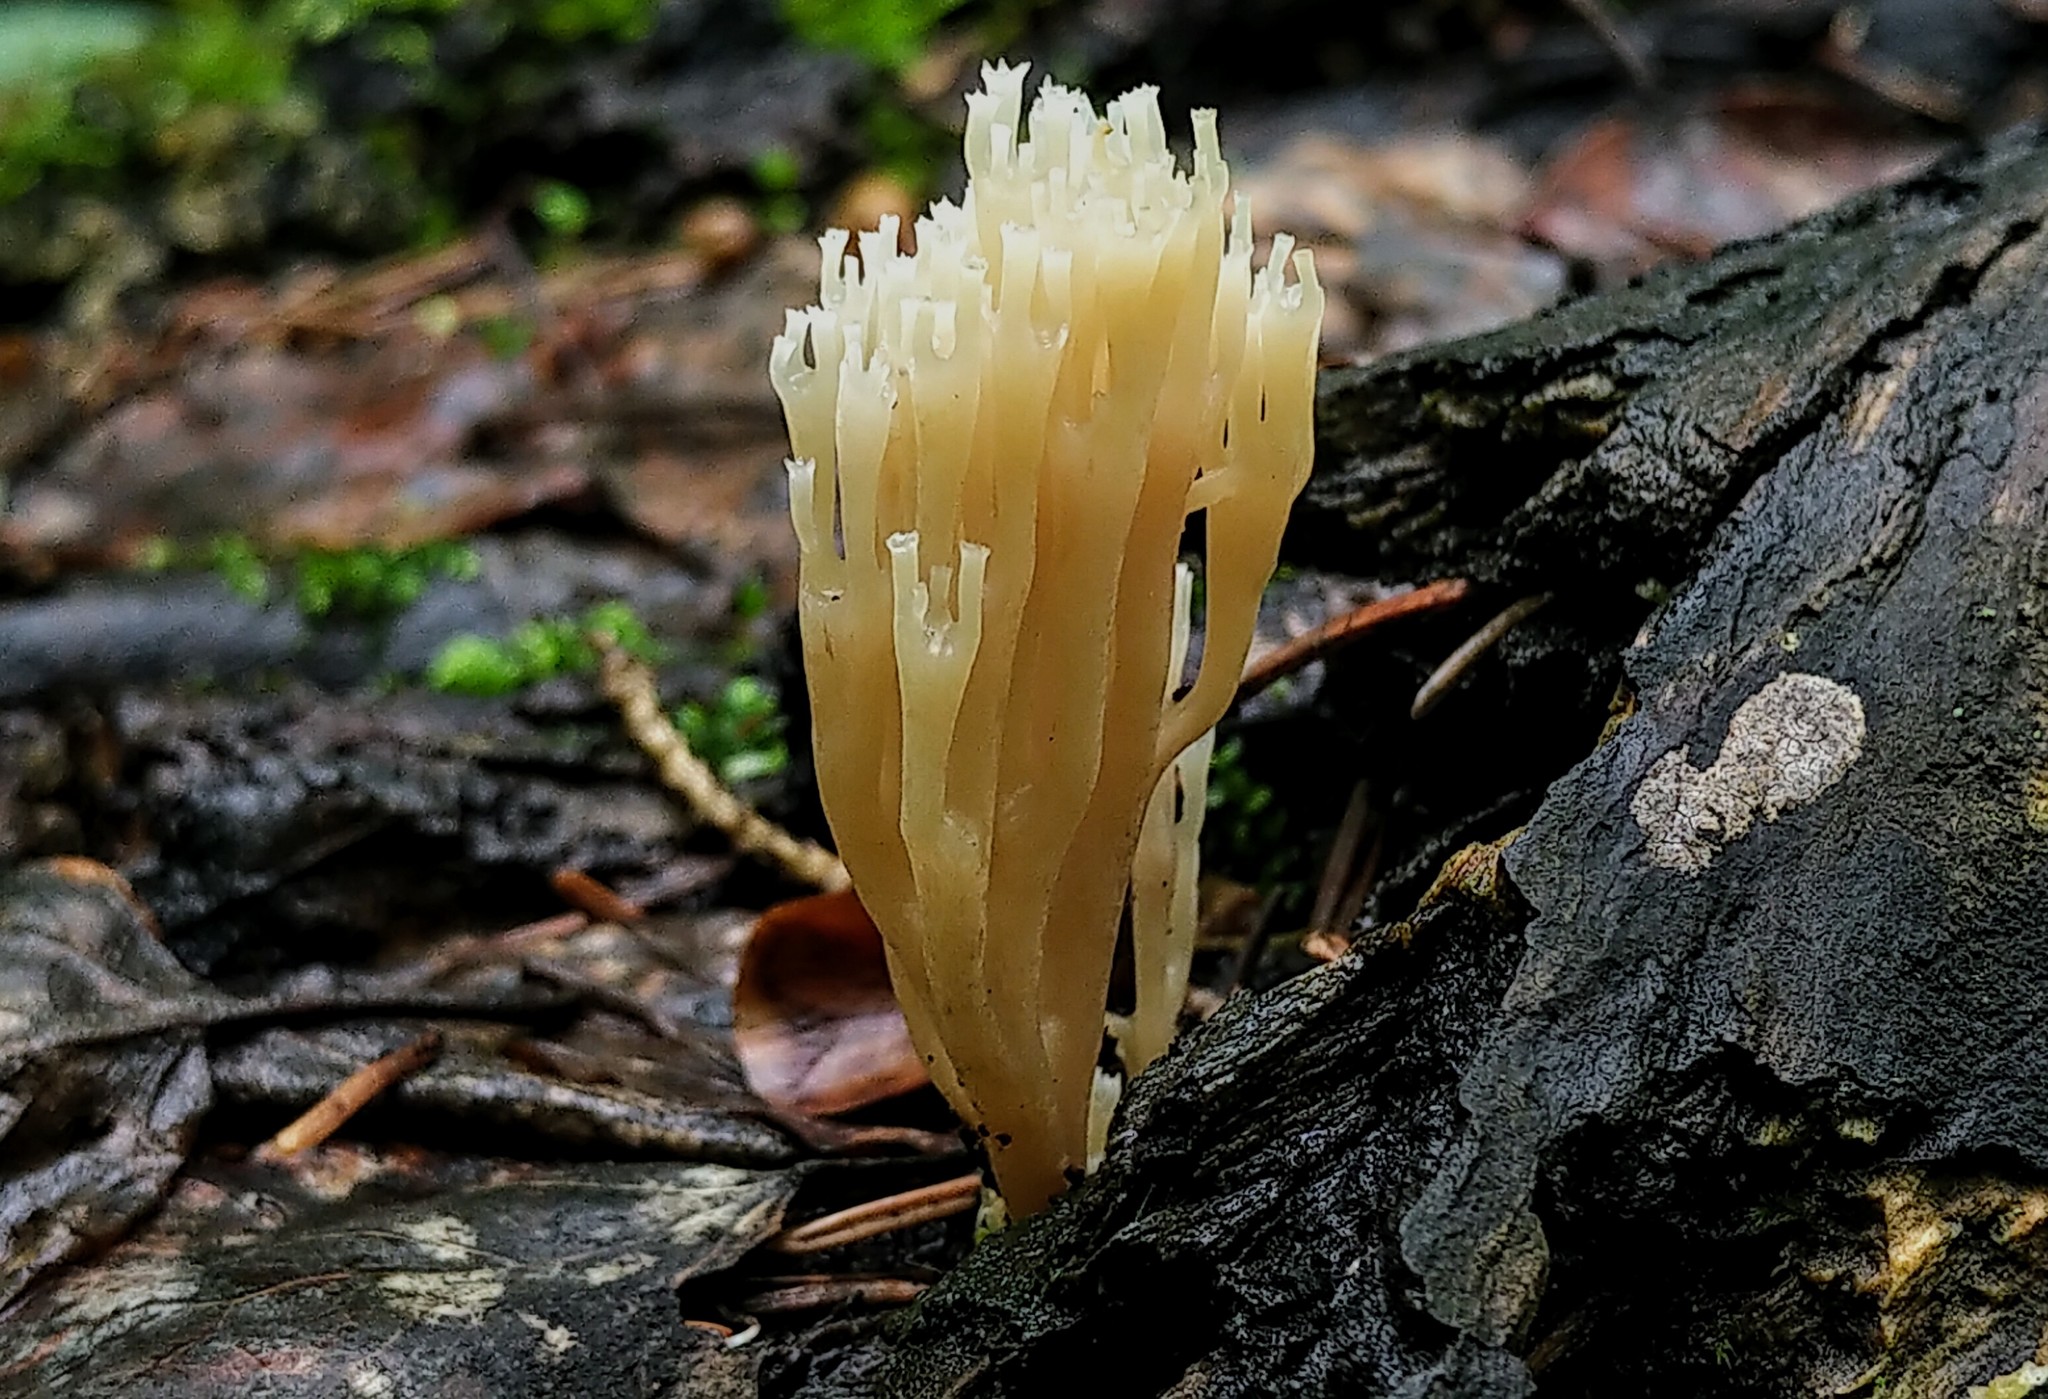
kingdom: Fungi
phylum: Basidiomycota
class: Agaricomycetes
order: Russulales
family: Auriscalpiaceae
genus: Artomyces
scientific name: Artomyces pyxidatus
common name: Crown-tipped coral fungus
